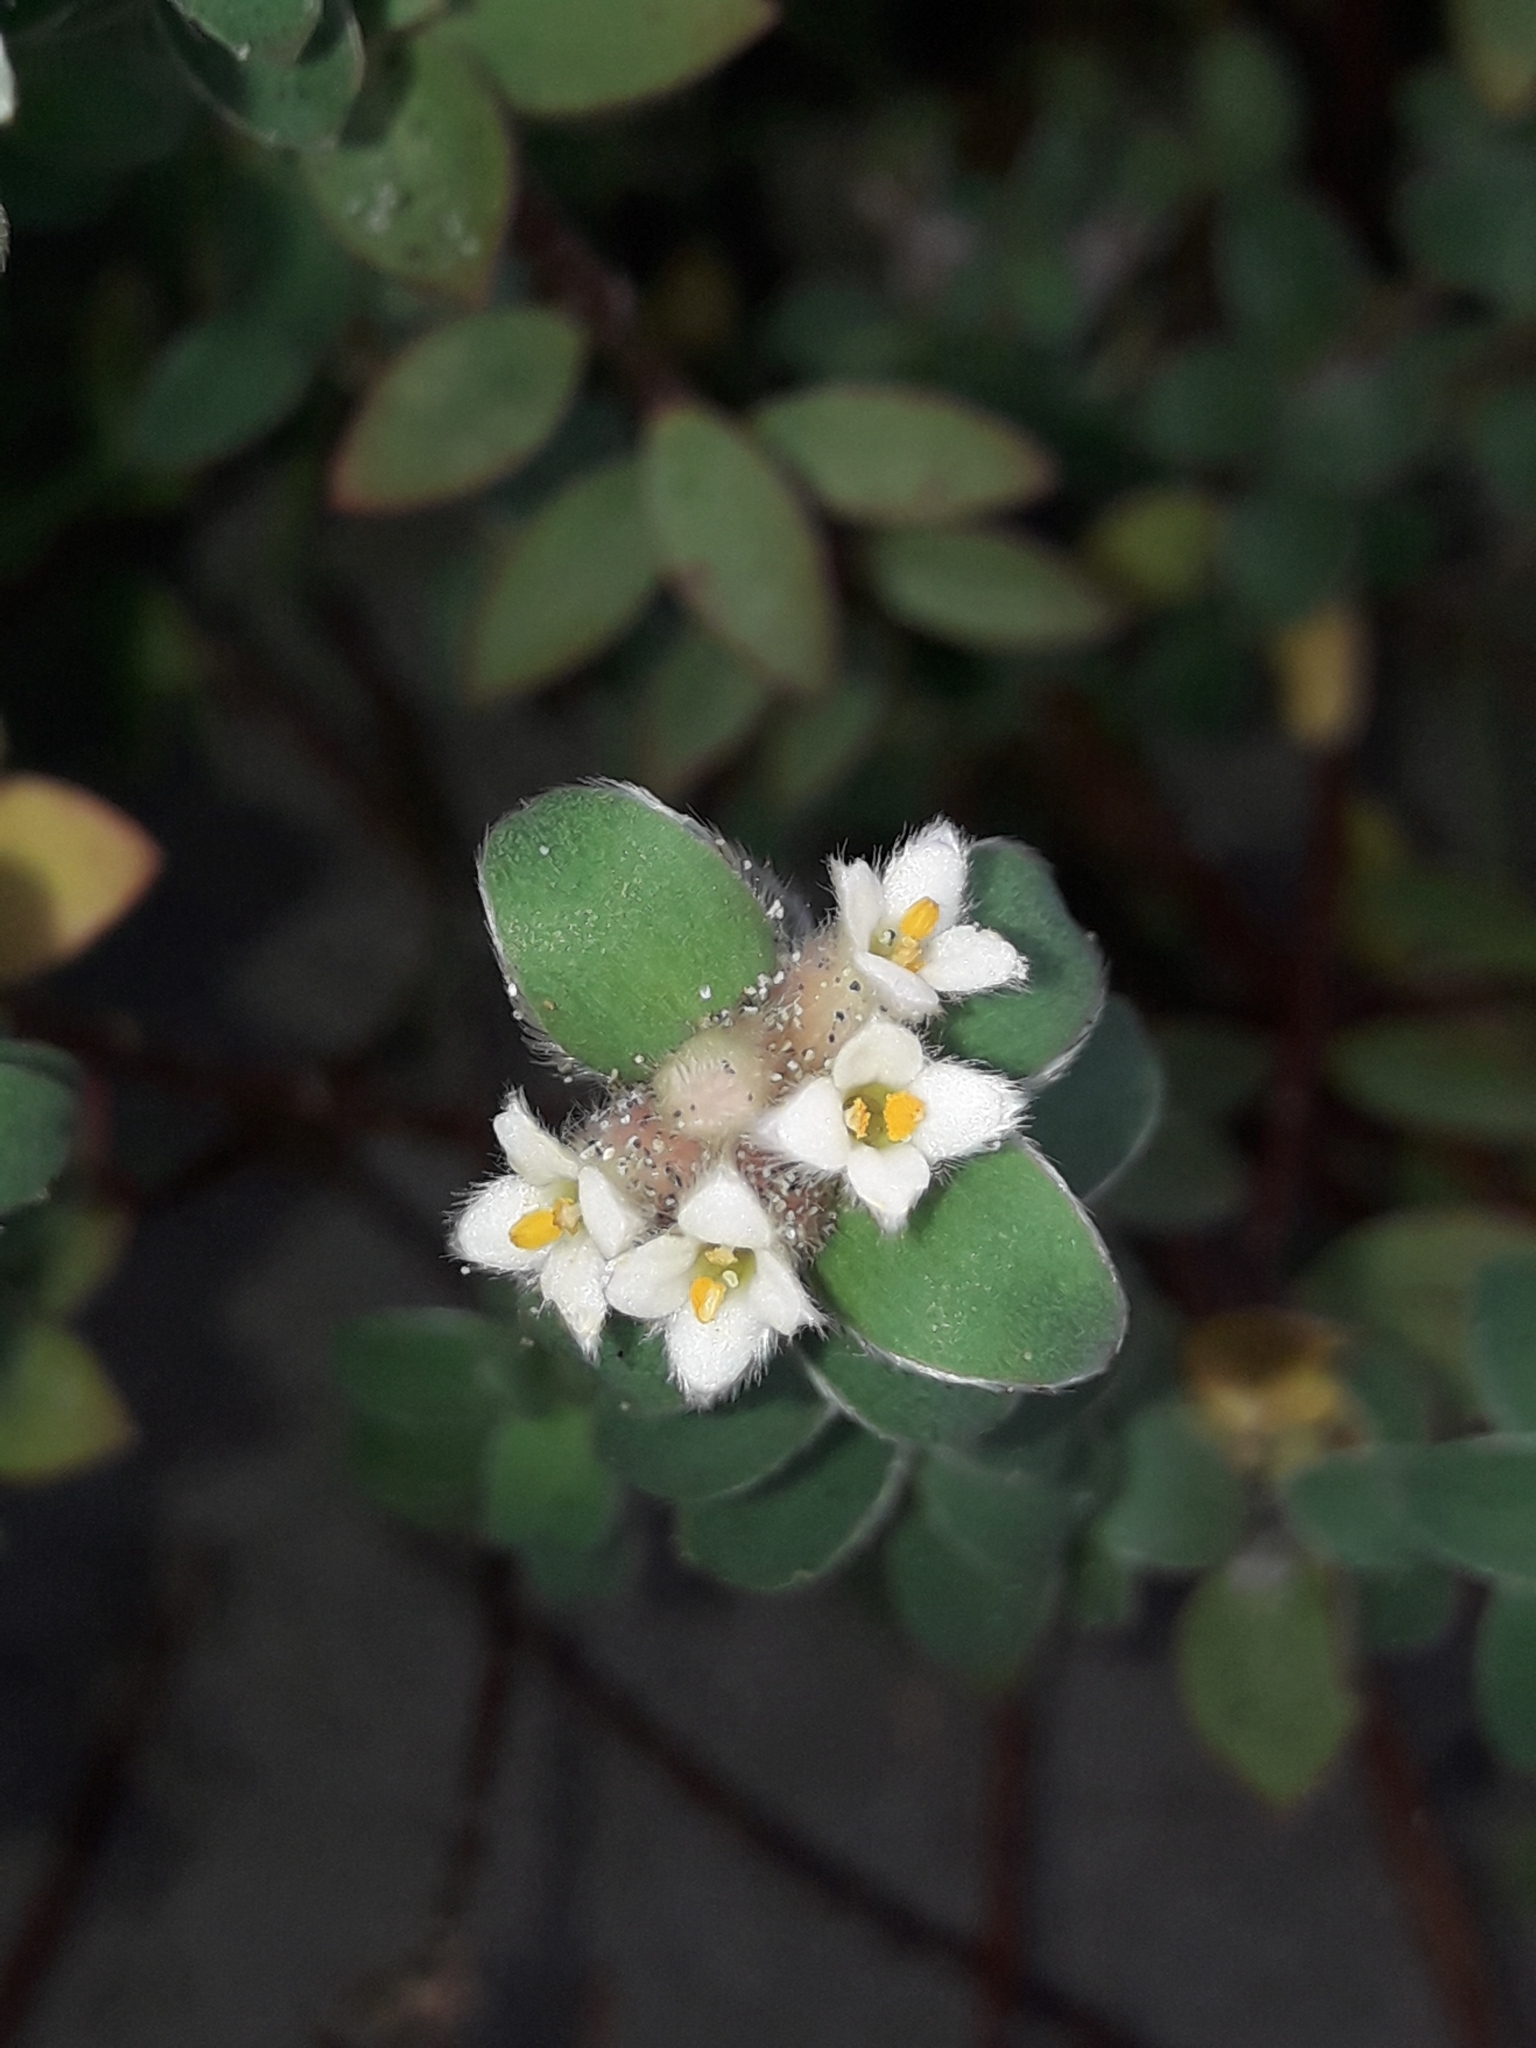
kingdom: Plantae
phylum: Tracheophyta
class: Magnoliopsida
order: Malvales
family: Thymelaeaceae
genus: Pimelea
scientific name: Pimelea villosa
